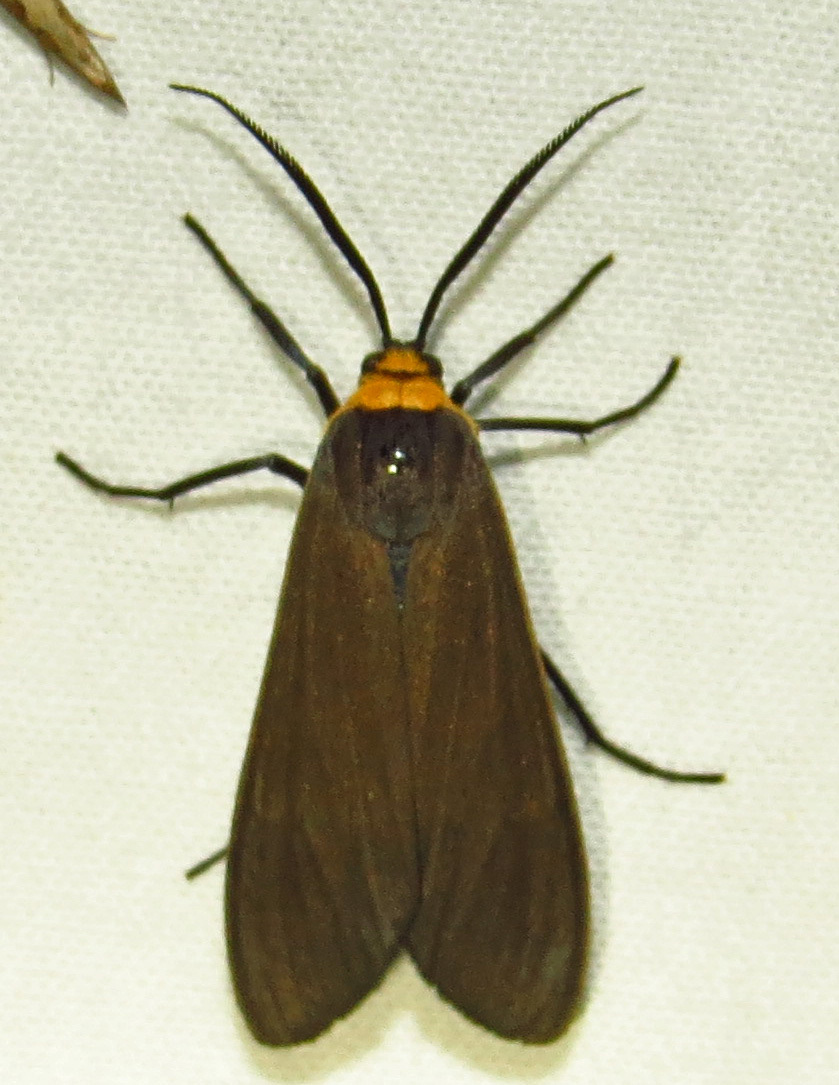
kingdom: Animalia
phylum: Arthropoda
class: Insecta
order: Lepidoptera
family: Erebidae
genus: Cisseps
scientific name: Cisseps fulvicollis
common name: Yellow-collared scape moth
